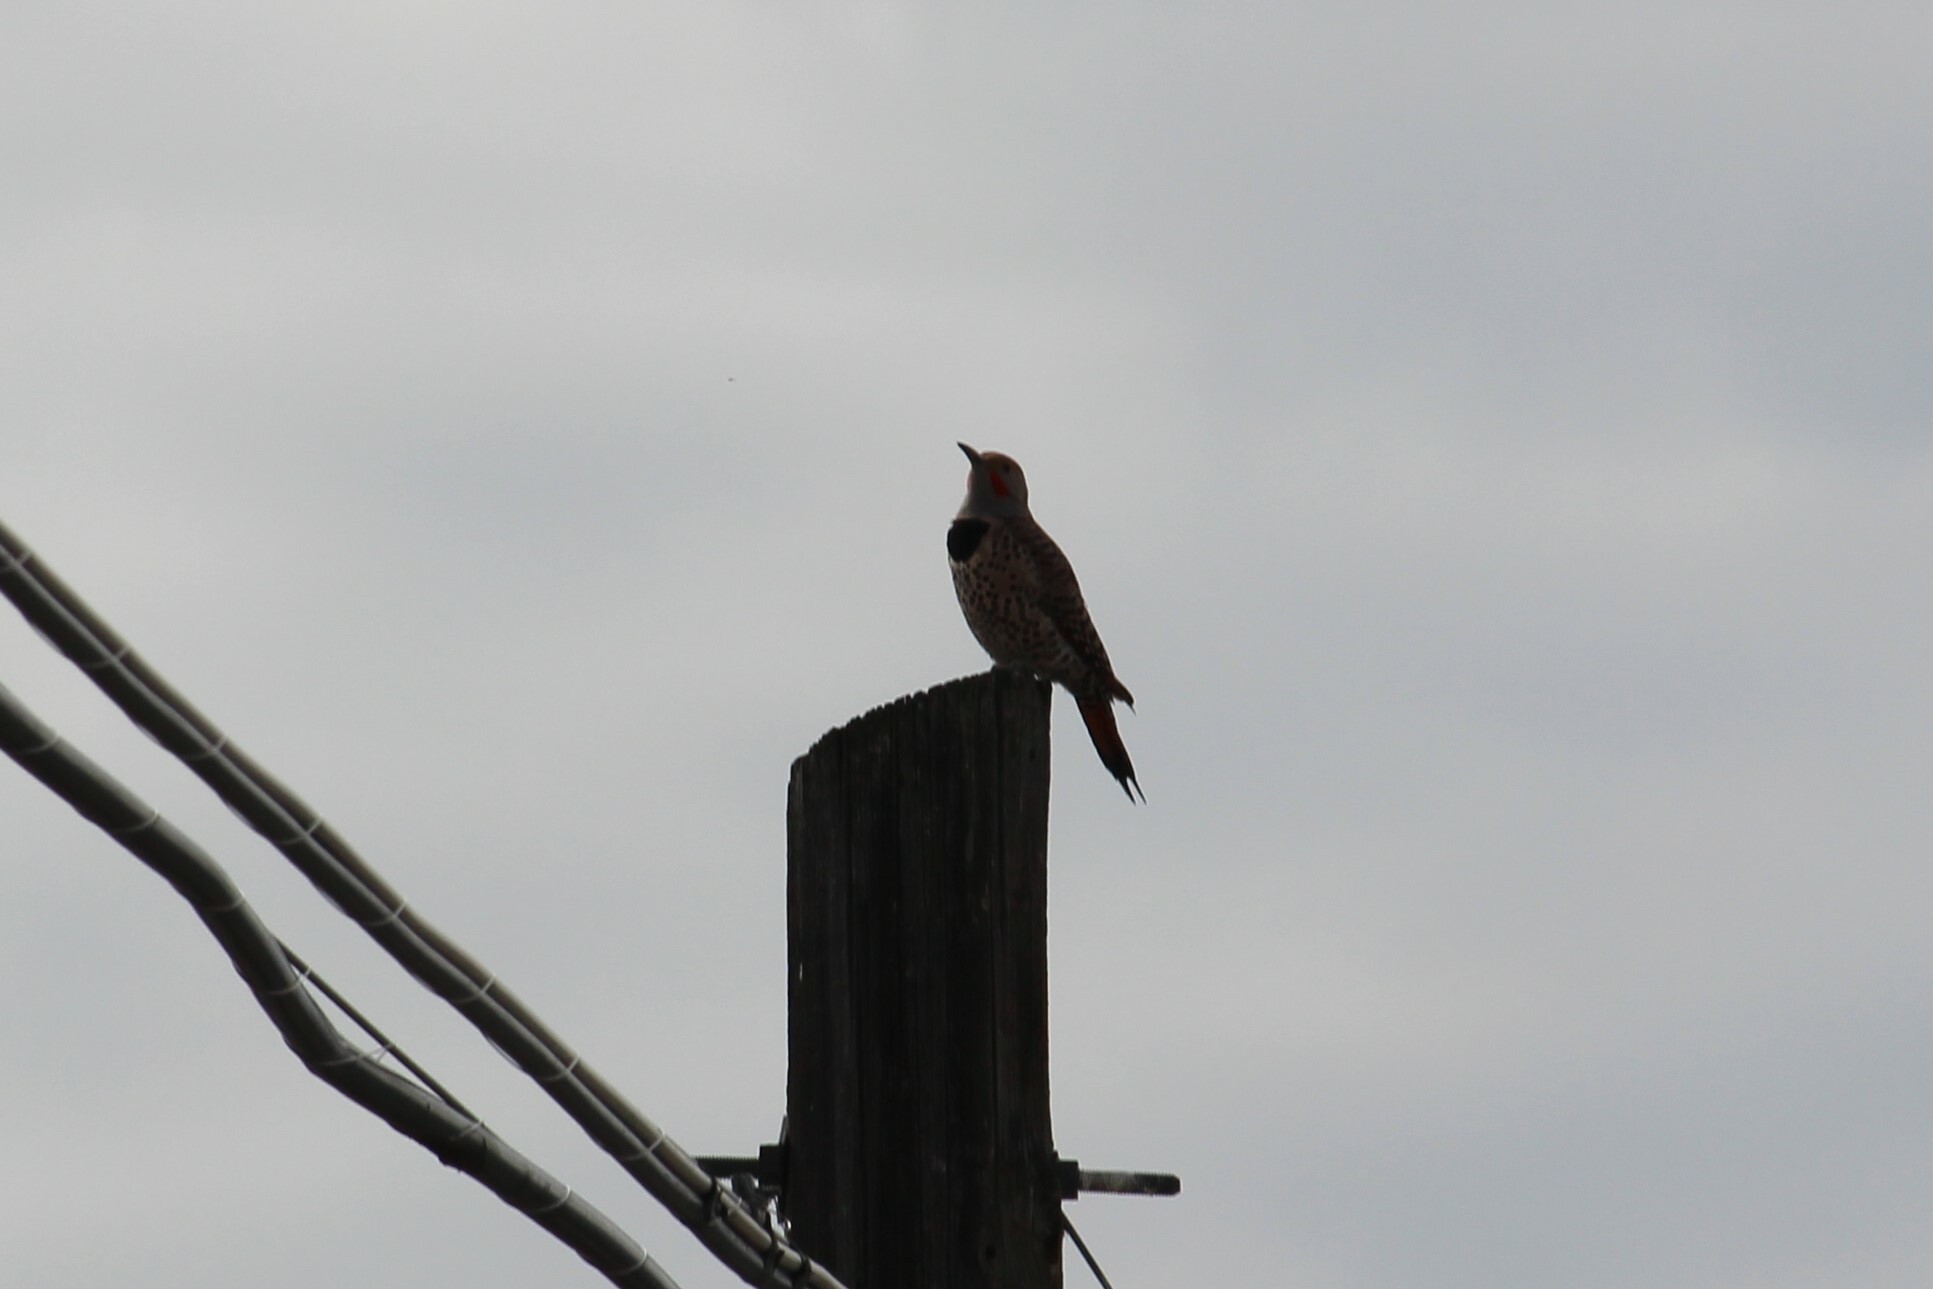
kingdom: Animalia
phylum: Chordata
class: Aves
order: Piciformes
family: Picidae
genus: Colaptes
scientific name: Colaptes auratus
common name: Northern flicker
